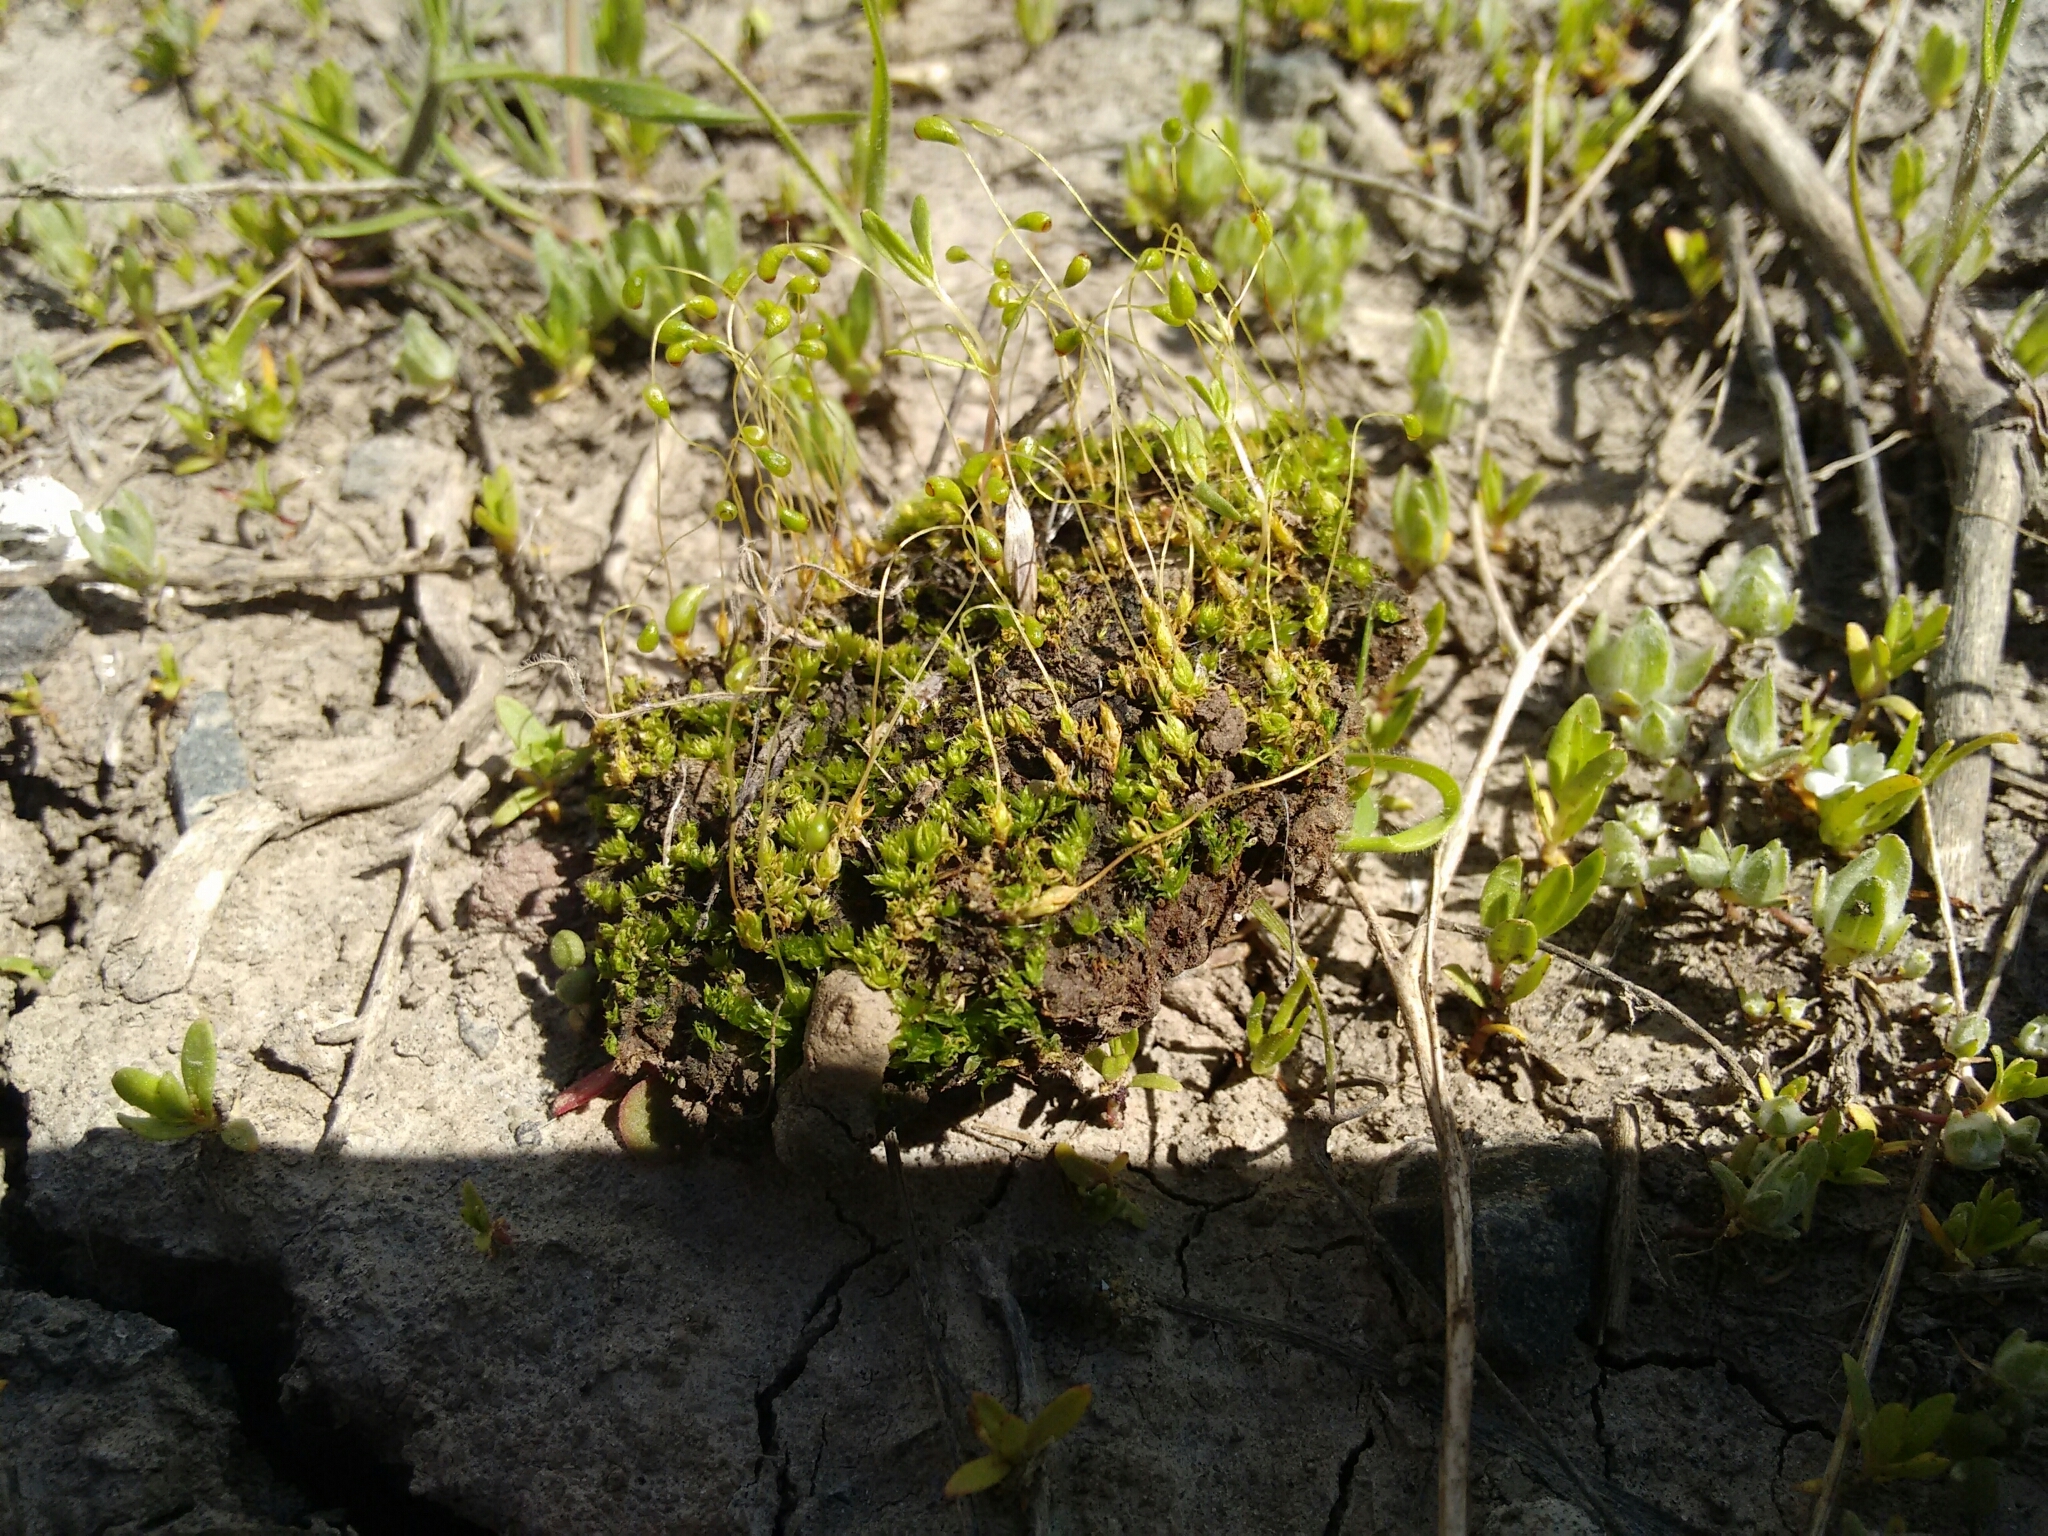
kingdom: Plantae
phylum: Bryophyta
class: Bryopsida
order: Funariales
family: Funariaceae
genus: Funaria
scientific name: Funaria hygrometrica
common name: Common cord moss
